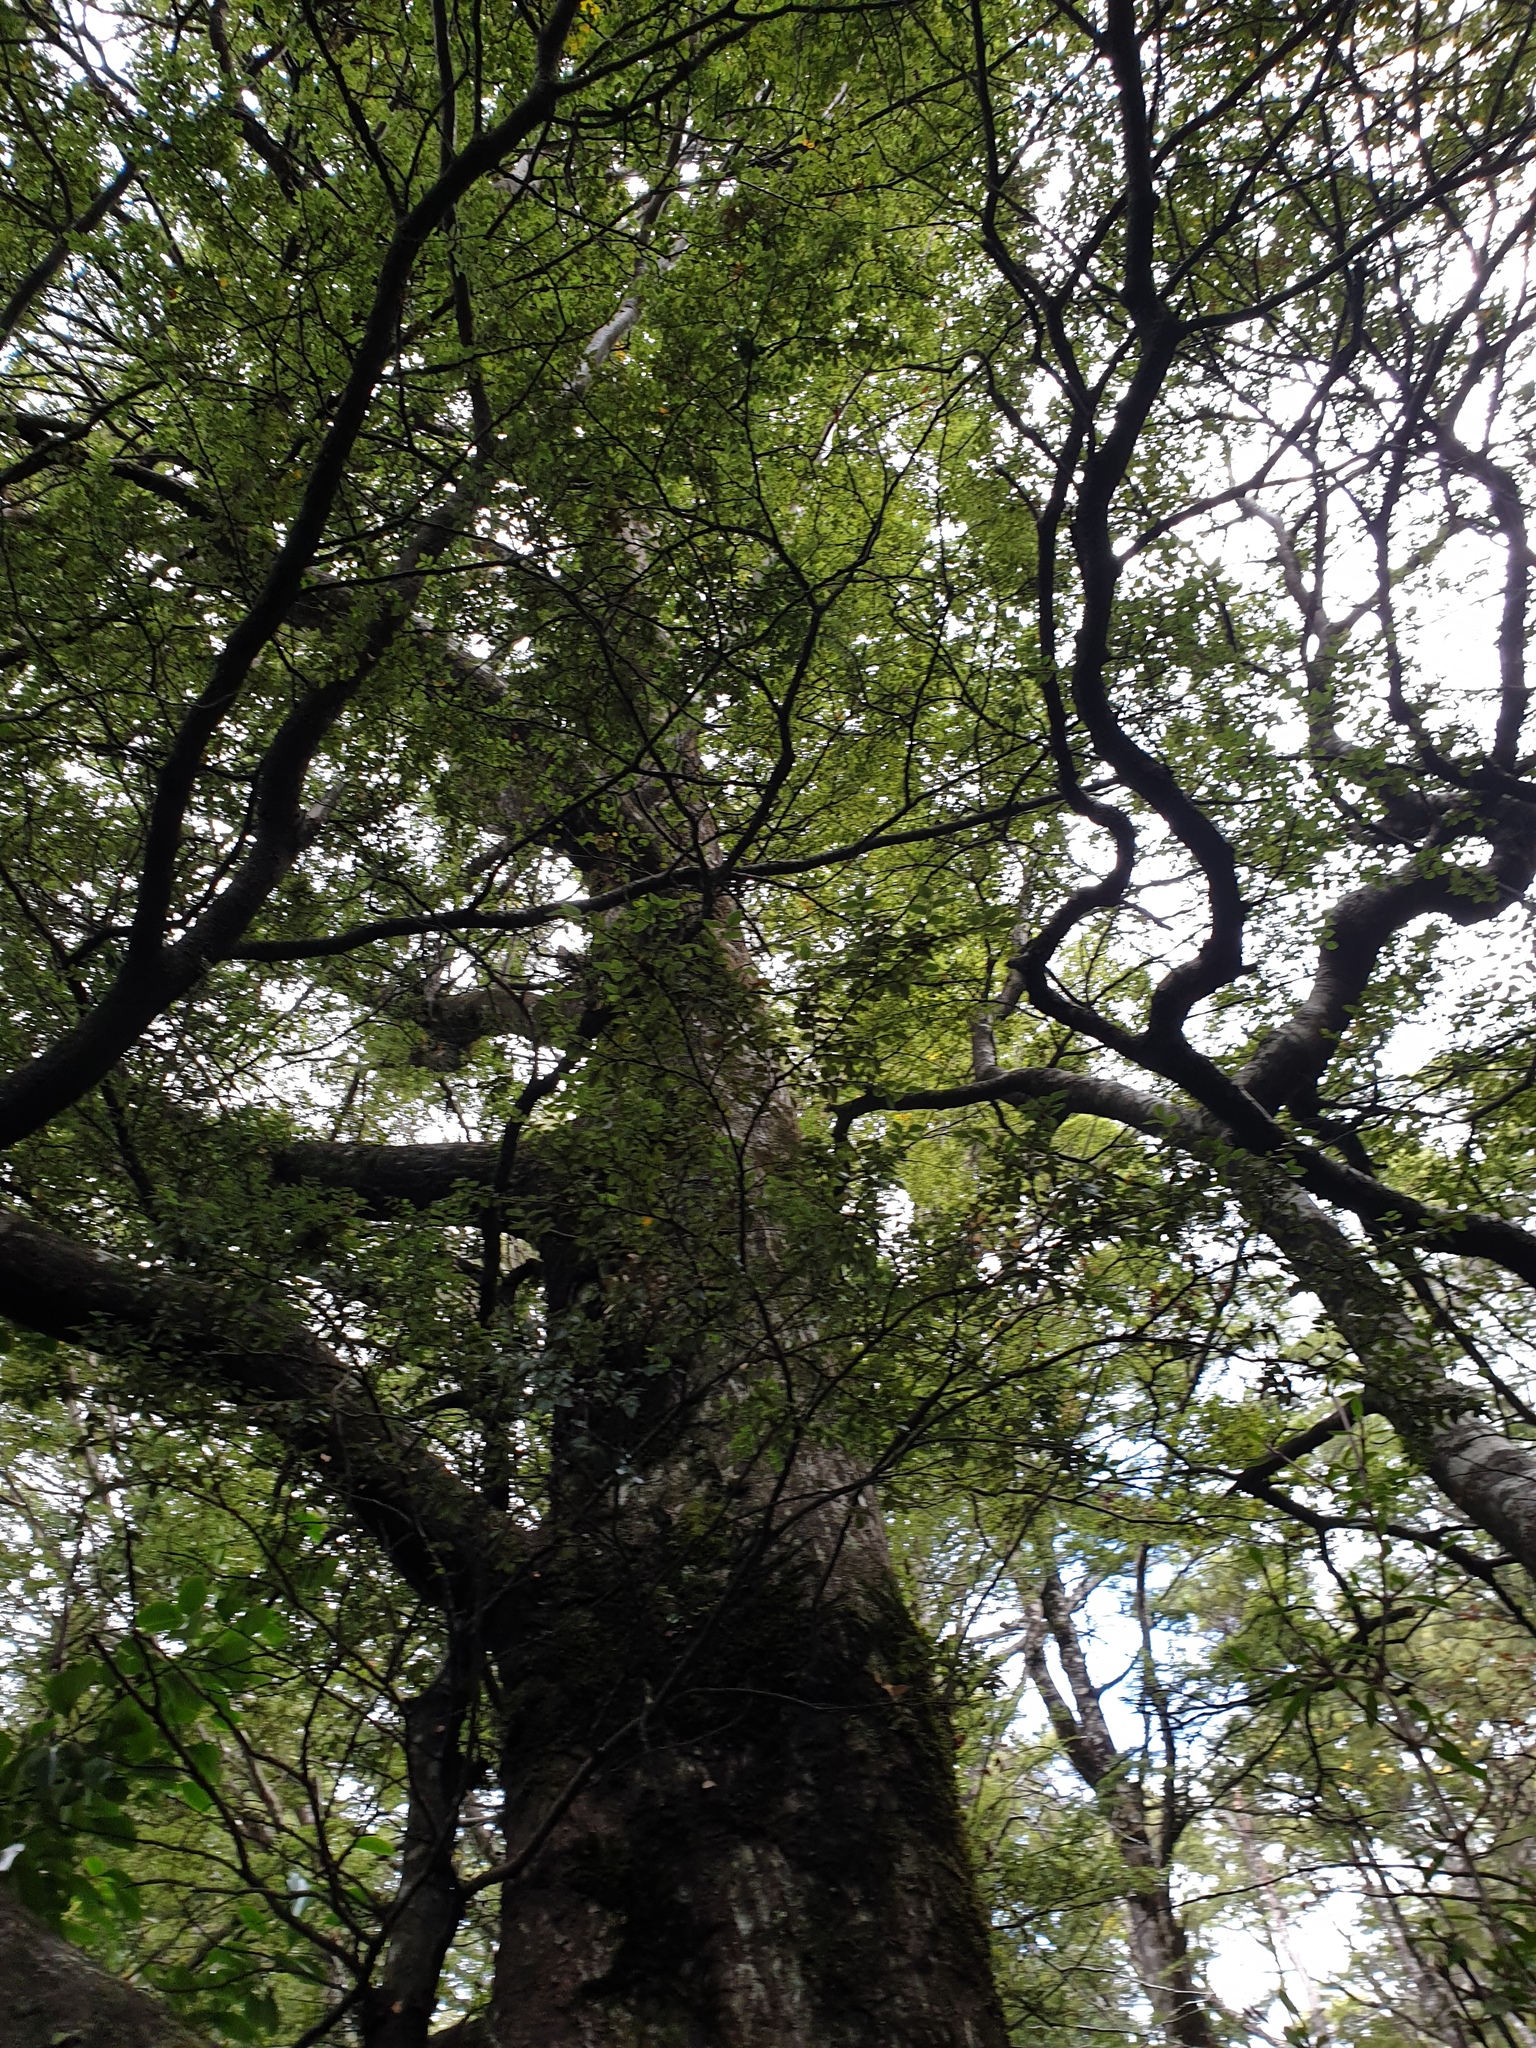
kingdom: Plantae
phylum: Tracheophyta
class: Magnoliopsida
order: Fagales
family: Nothofagaceae
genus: Nothofagus
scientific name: Nothofagus cliffortioides
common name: Mountain beech
